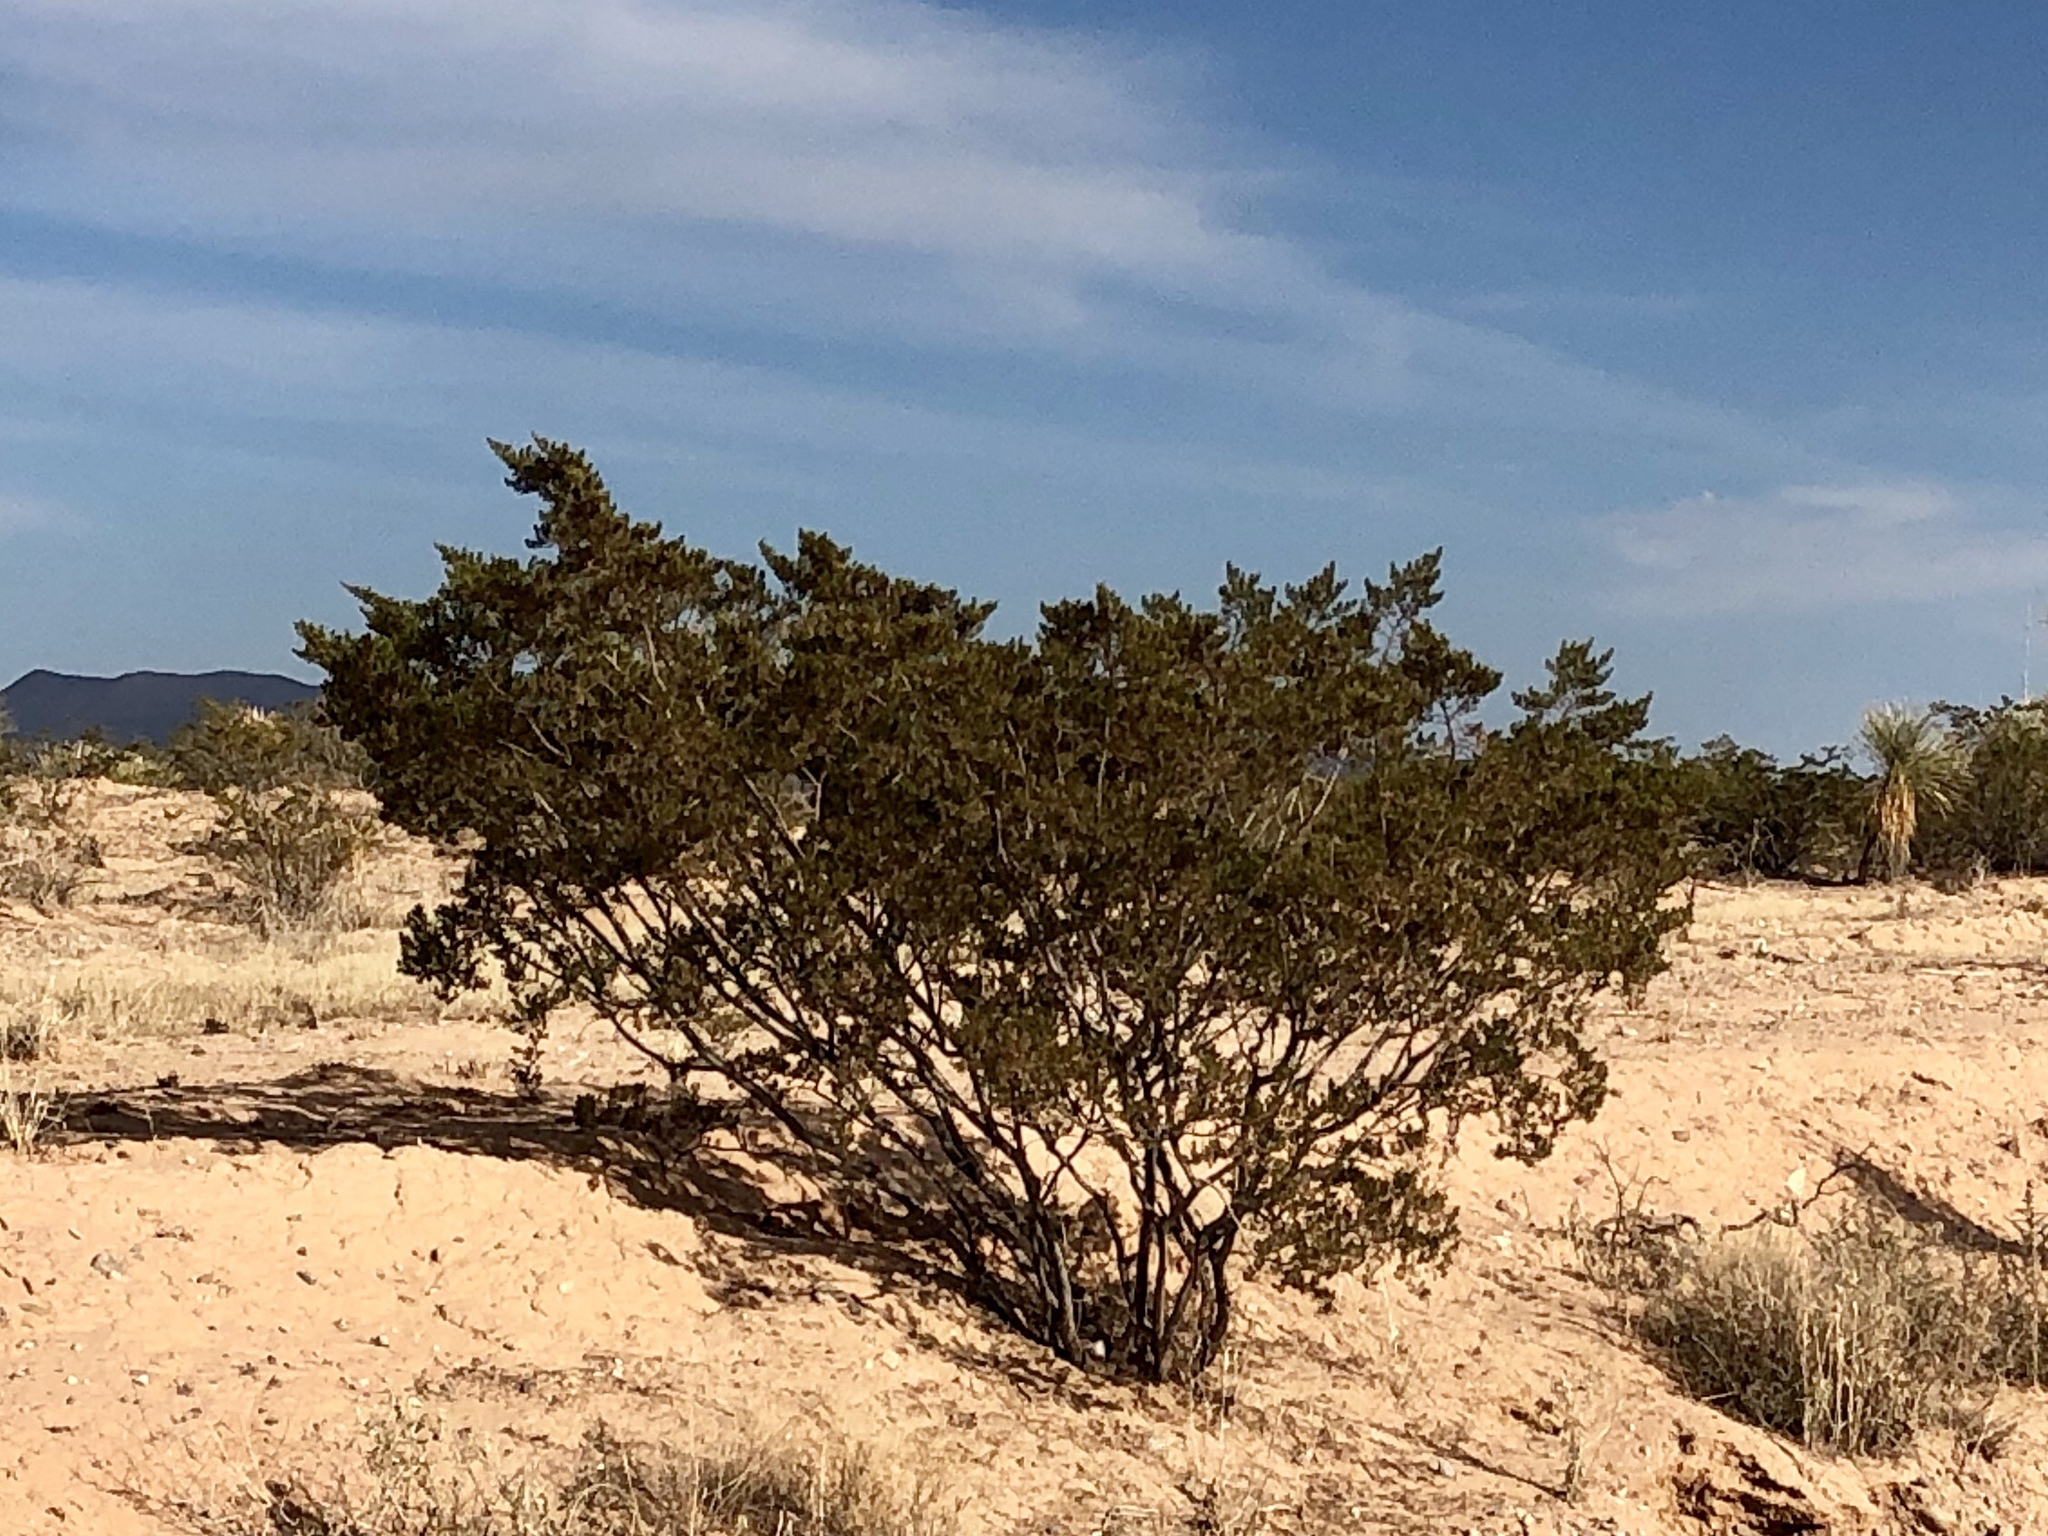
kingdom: Plantae
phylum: Tracheophyta
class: Magnoliopsida
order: Zygophyllales
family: Zygophyllaceae
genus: Larrea
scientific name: Larrea tridentata
